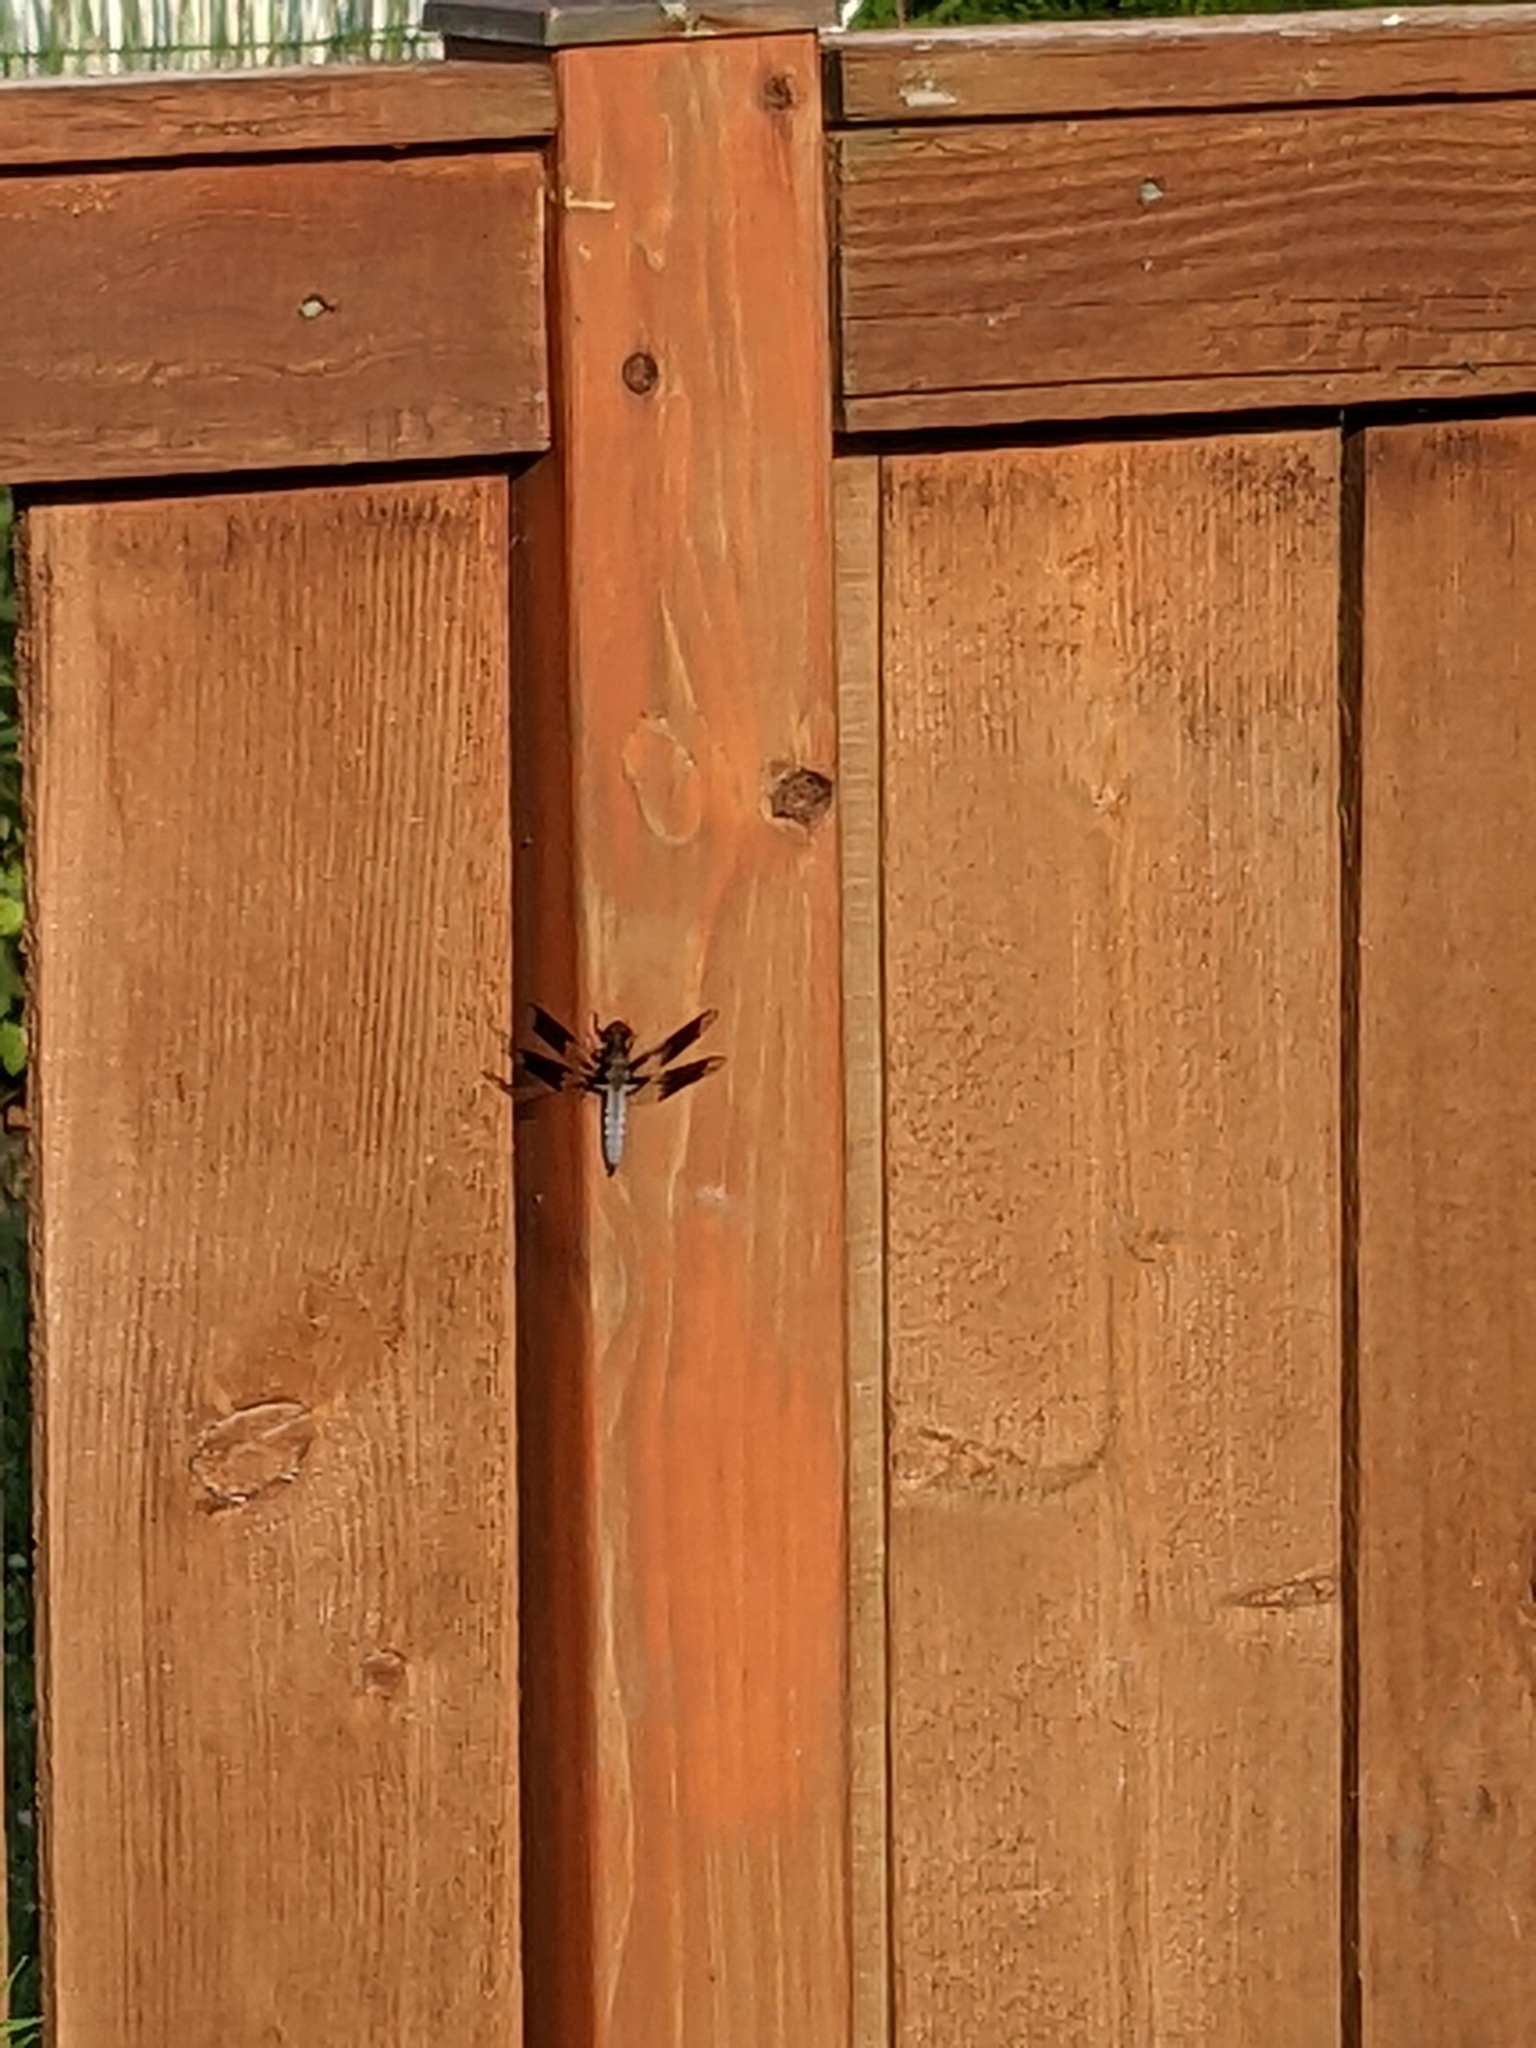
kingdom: Animalia
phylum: Arthropoda
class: Insecta
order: Odonata
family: Libellulidae
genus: Plathemis
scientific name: Plathemis lydia
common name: Common whitetail
